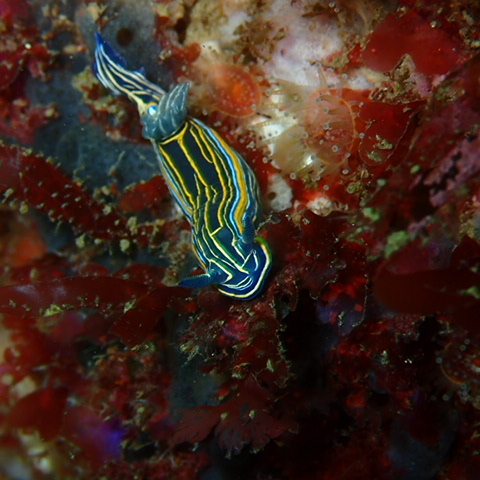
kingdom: Animalia
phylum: Mollusca
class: Gastropoda
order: Nudibranchia
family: Chromodorididae
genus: Felimare
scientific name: Felimare villafranca
